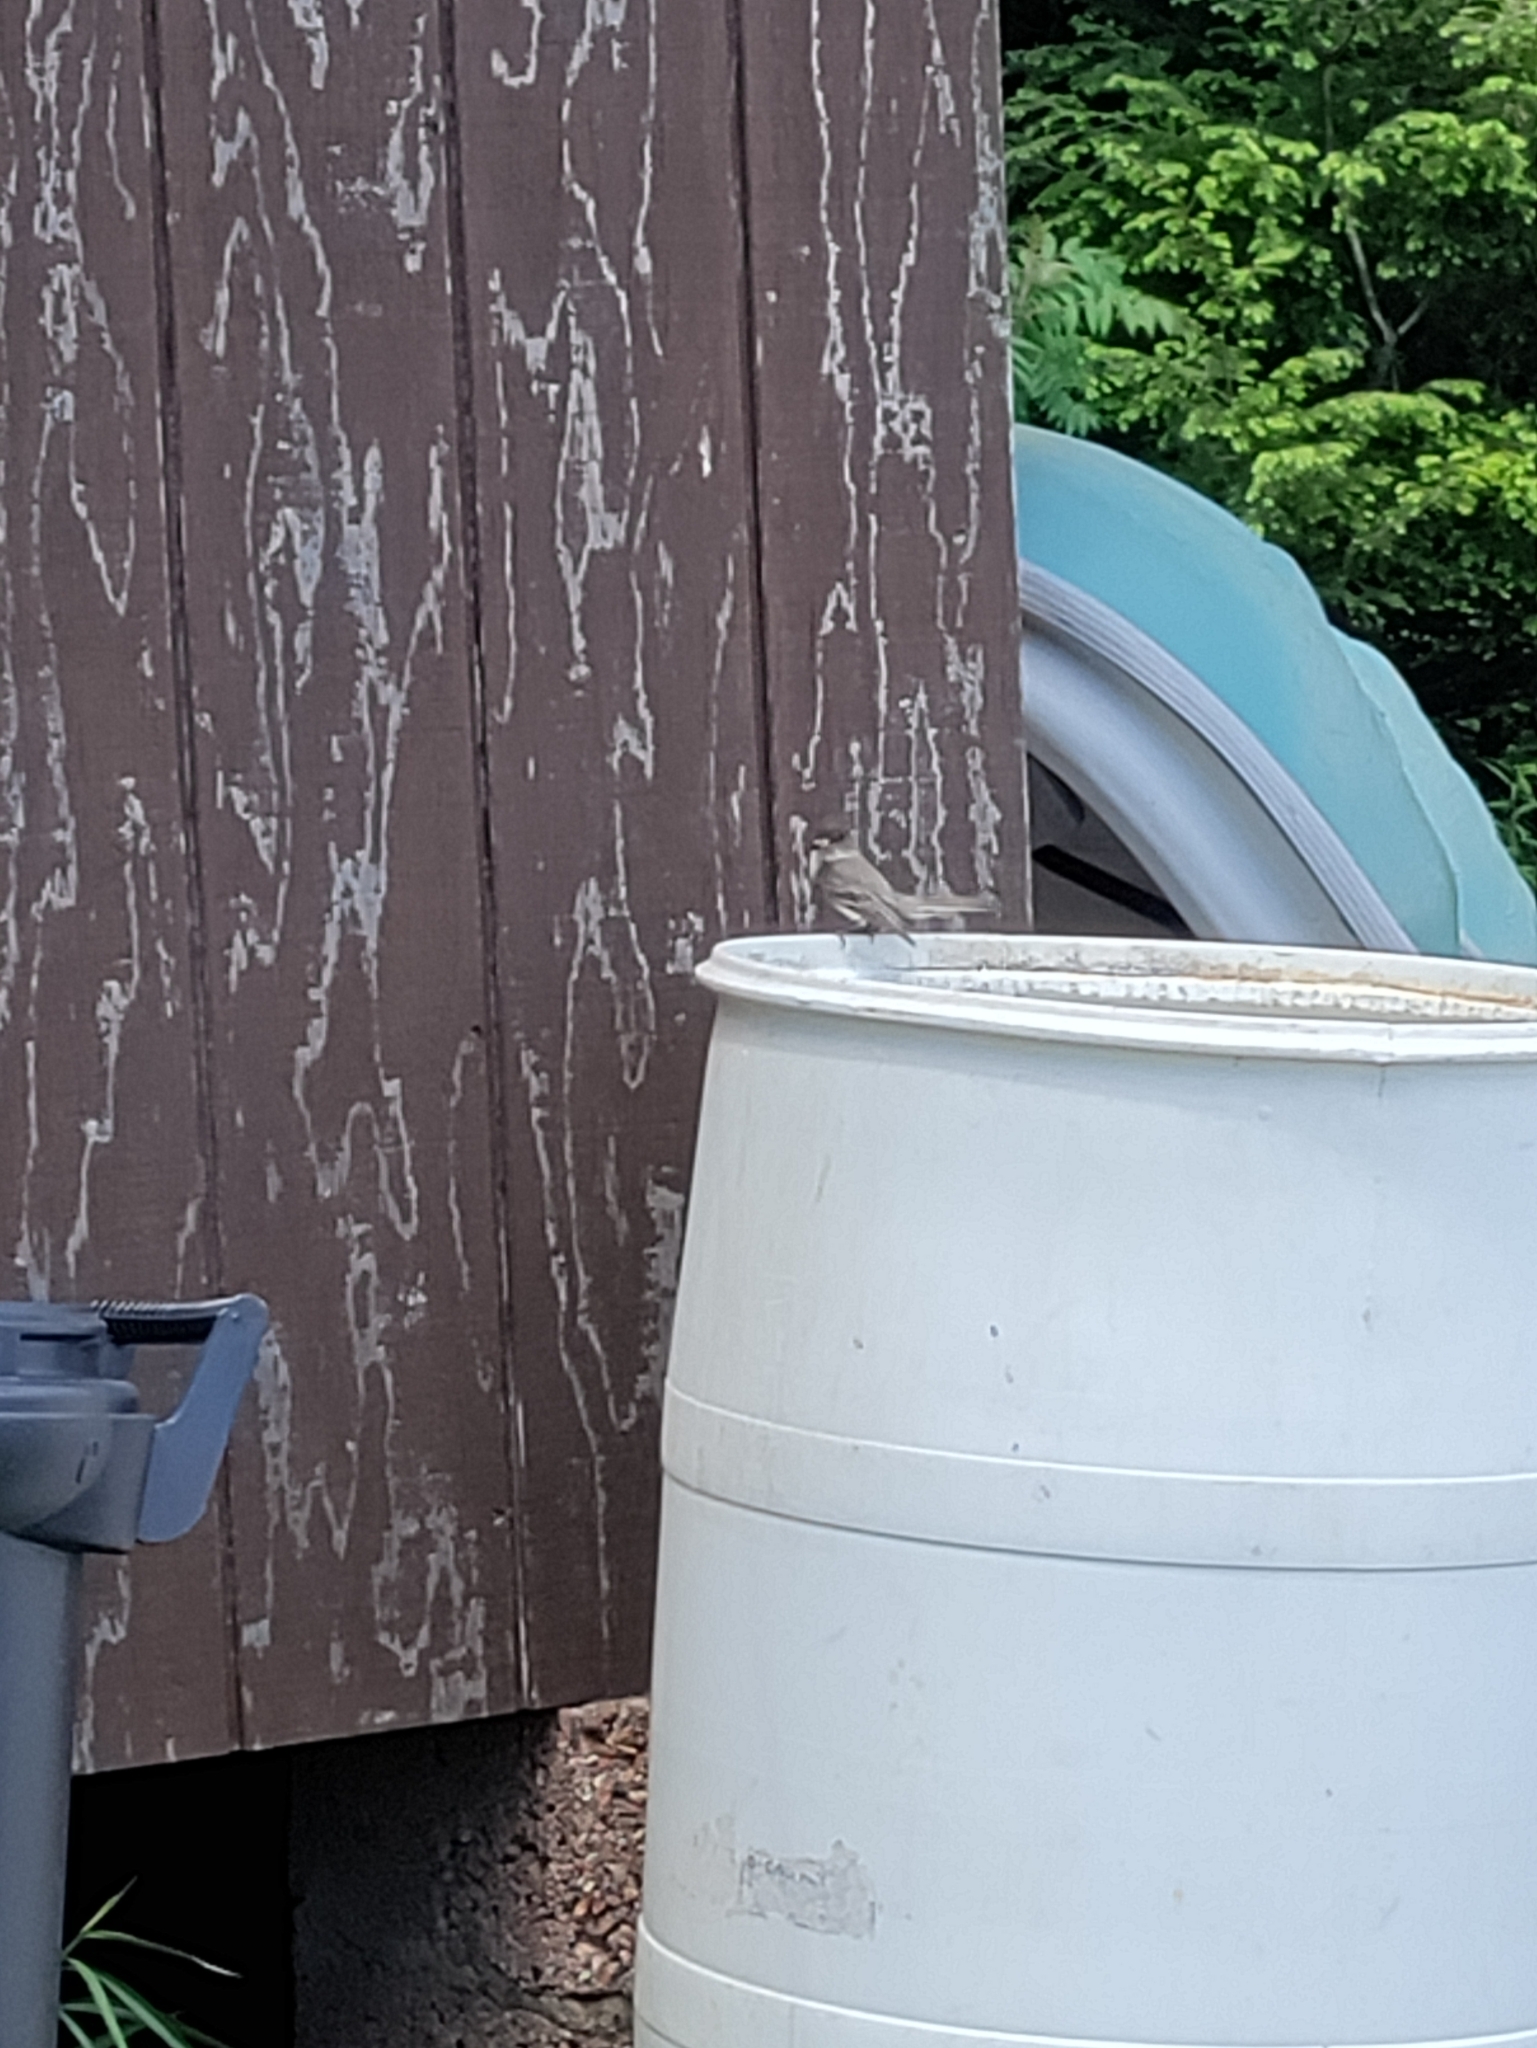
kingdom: Animalia
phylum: Chordata
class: Aves
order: Passeriformes
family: Tyrannidae
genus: Sayornis
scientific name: Sayornis phoebe
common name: Eastern phoebe
